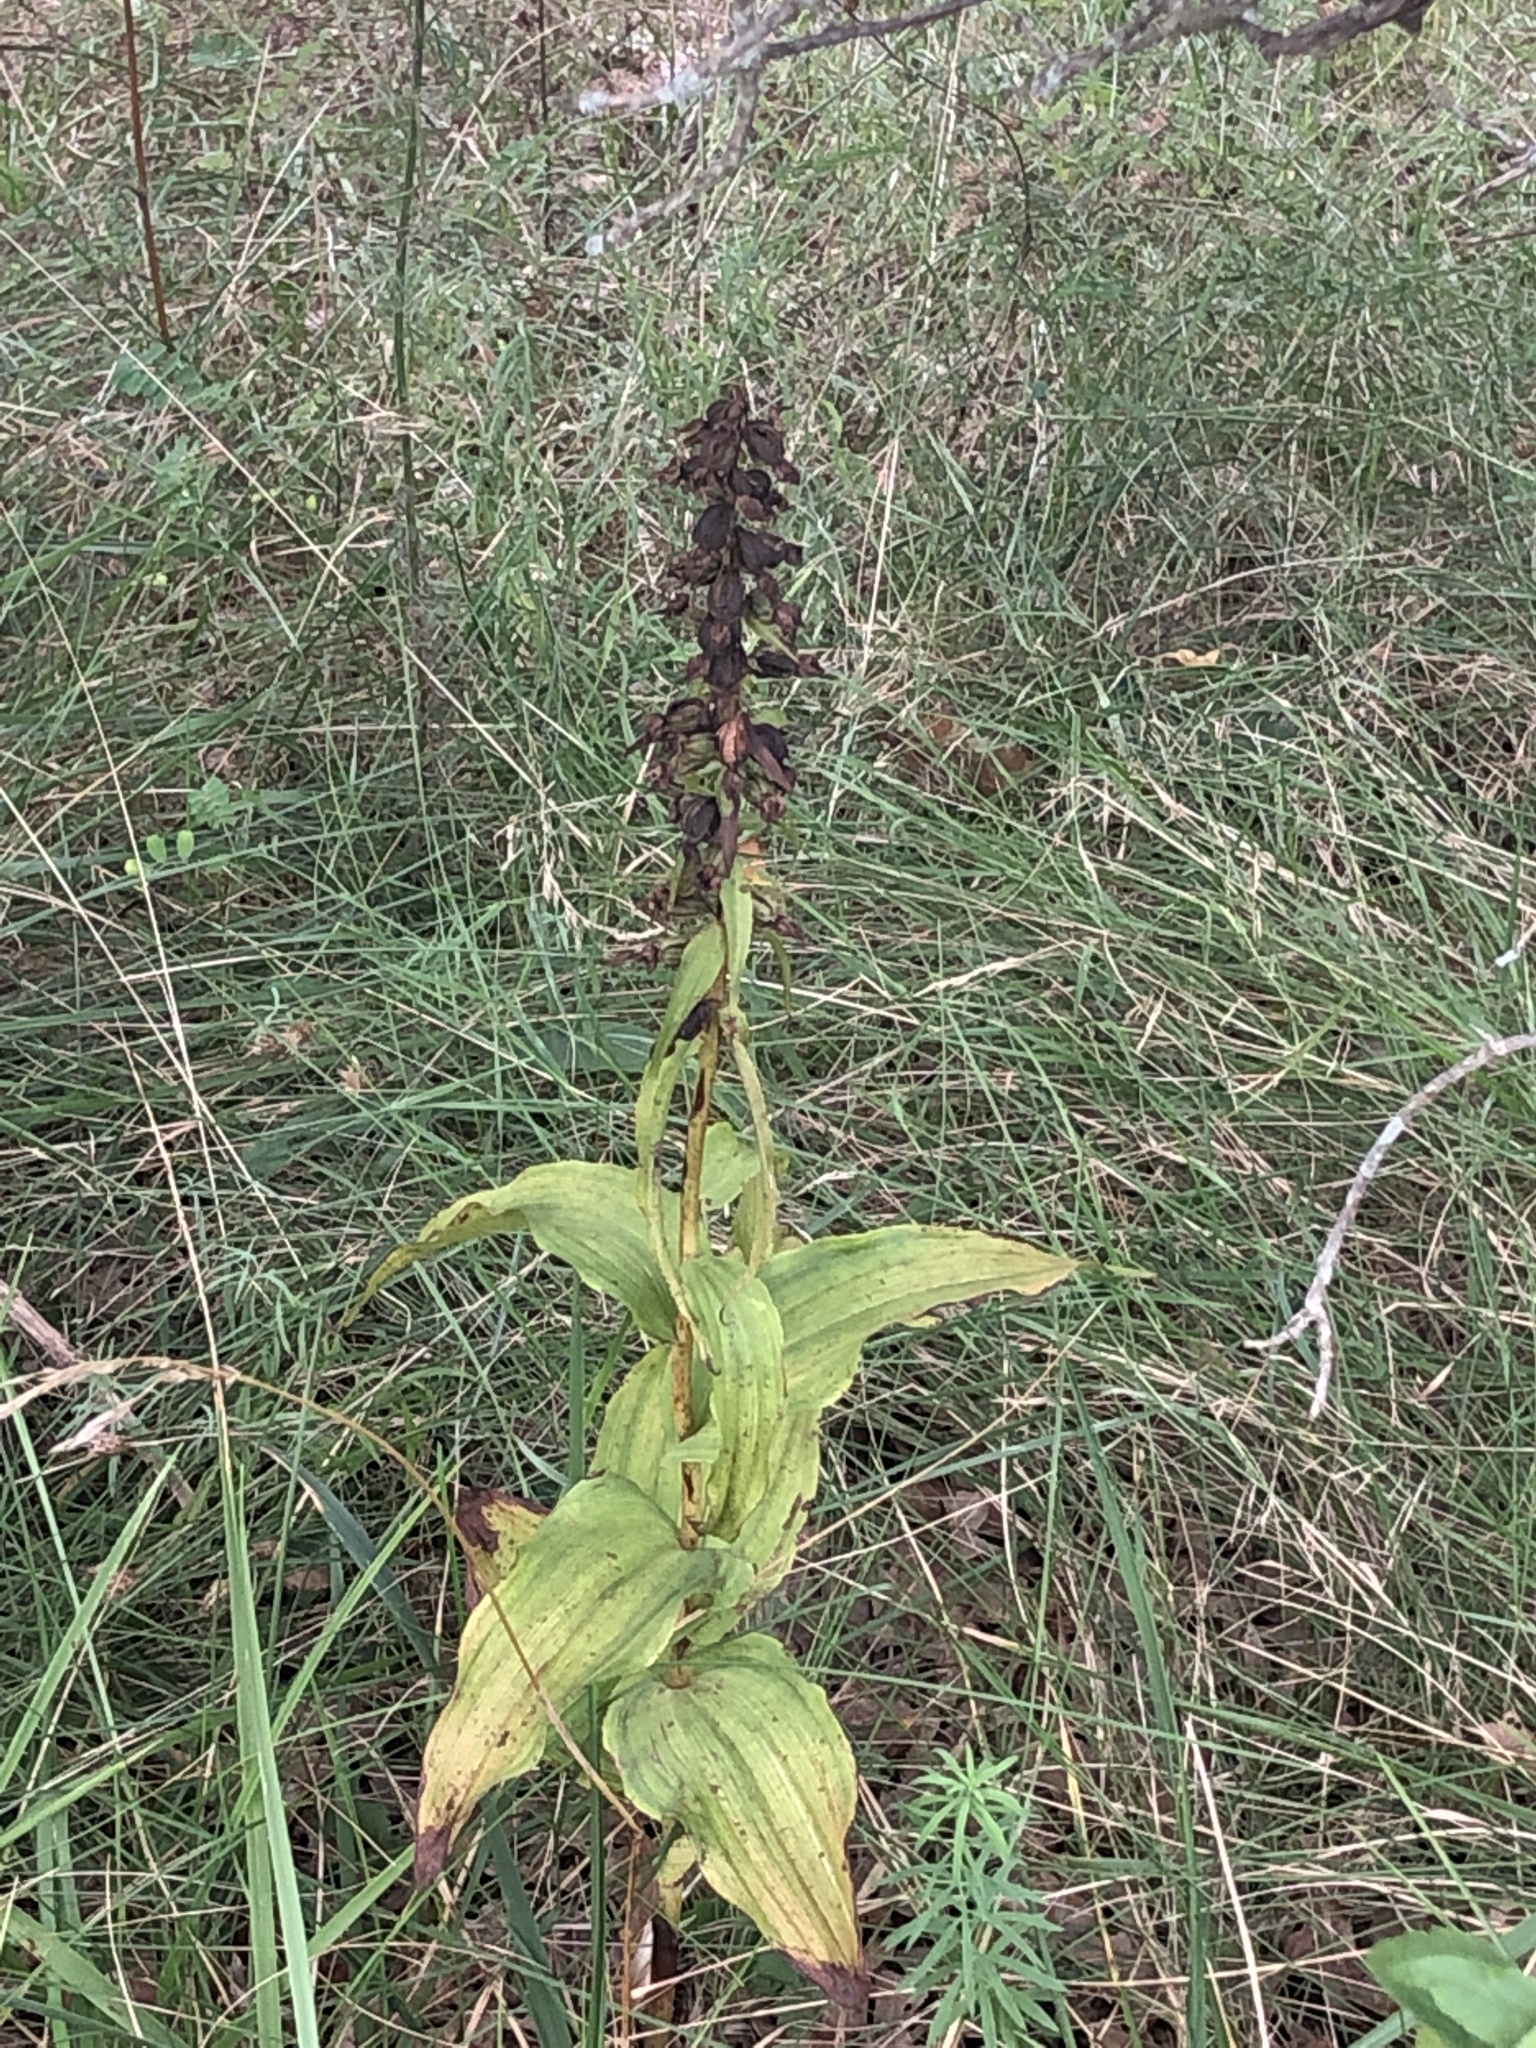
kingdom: Plantae
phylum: Tracheophyta
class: Liliopsida
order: Asparagales
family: Orchidaceae
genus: Epipactis
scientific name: Epipactis helleborine
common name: Broad-leaved helleborine
